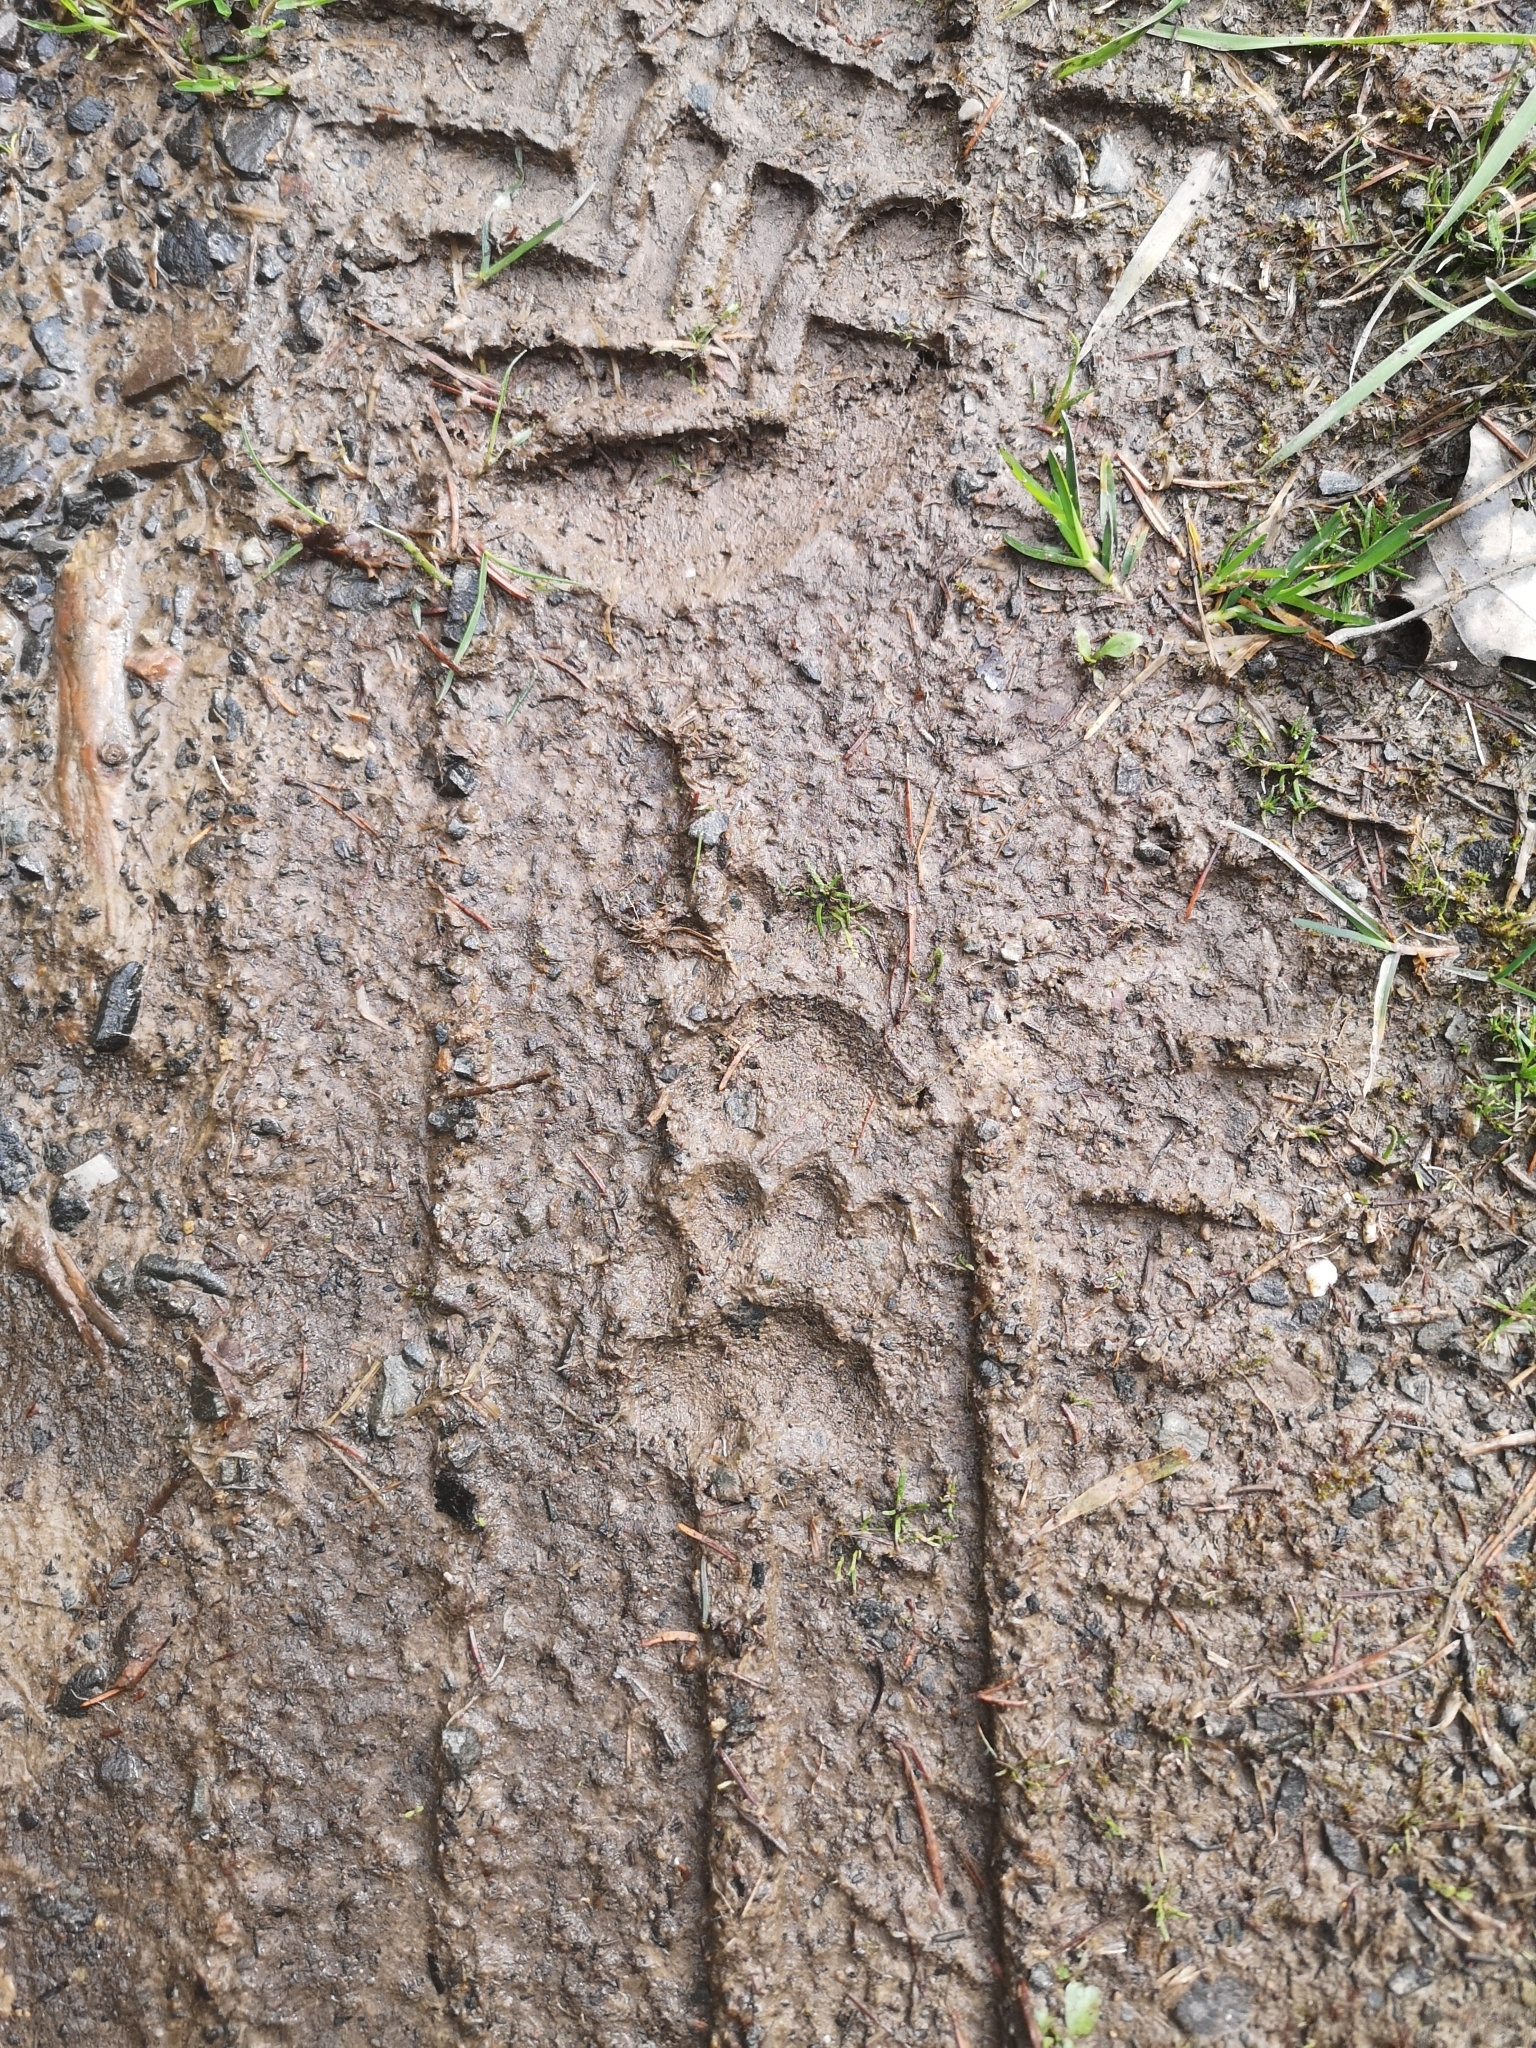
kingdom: Animalia
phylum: Chordata
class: Mammalia
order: Carnivora
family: Mustelidae
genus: Meles
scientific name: Meles meles
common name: Eurasian badger
